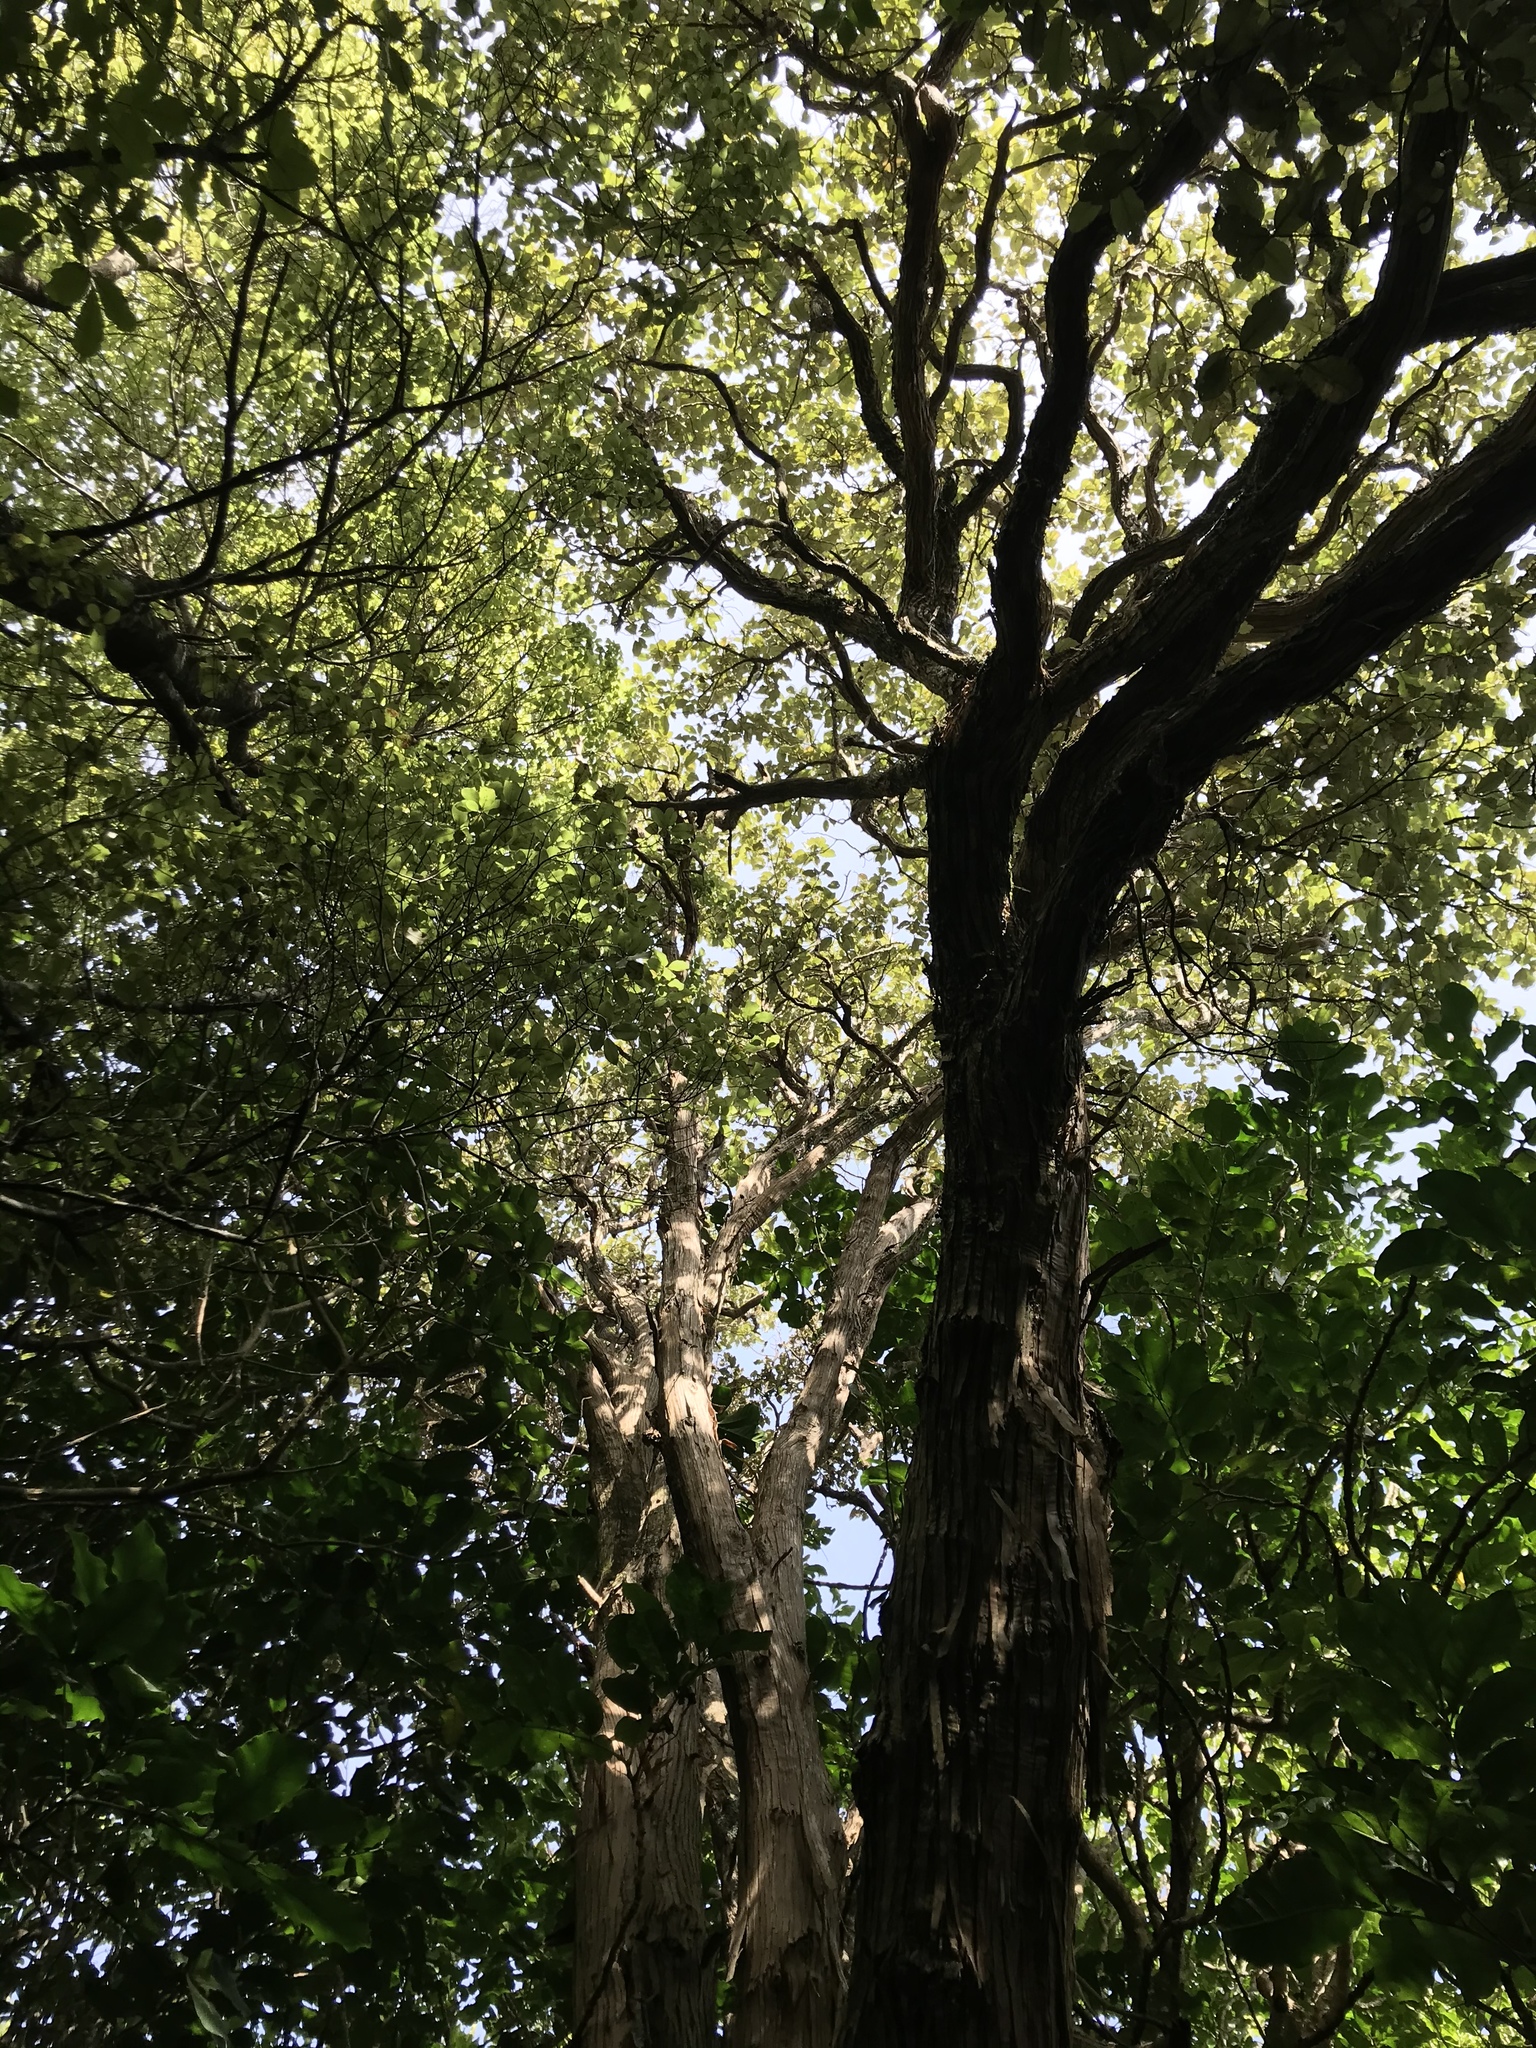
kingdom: Plantae
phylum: Tracheophyta
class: Magnoliopsida
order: Asterales
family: Asteraceae
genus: Olearia
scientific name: Olearia paniculata
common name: Akiraho
